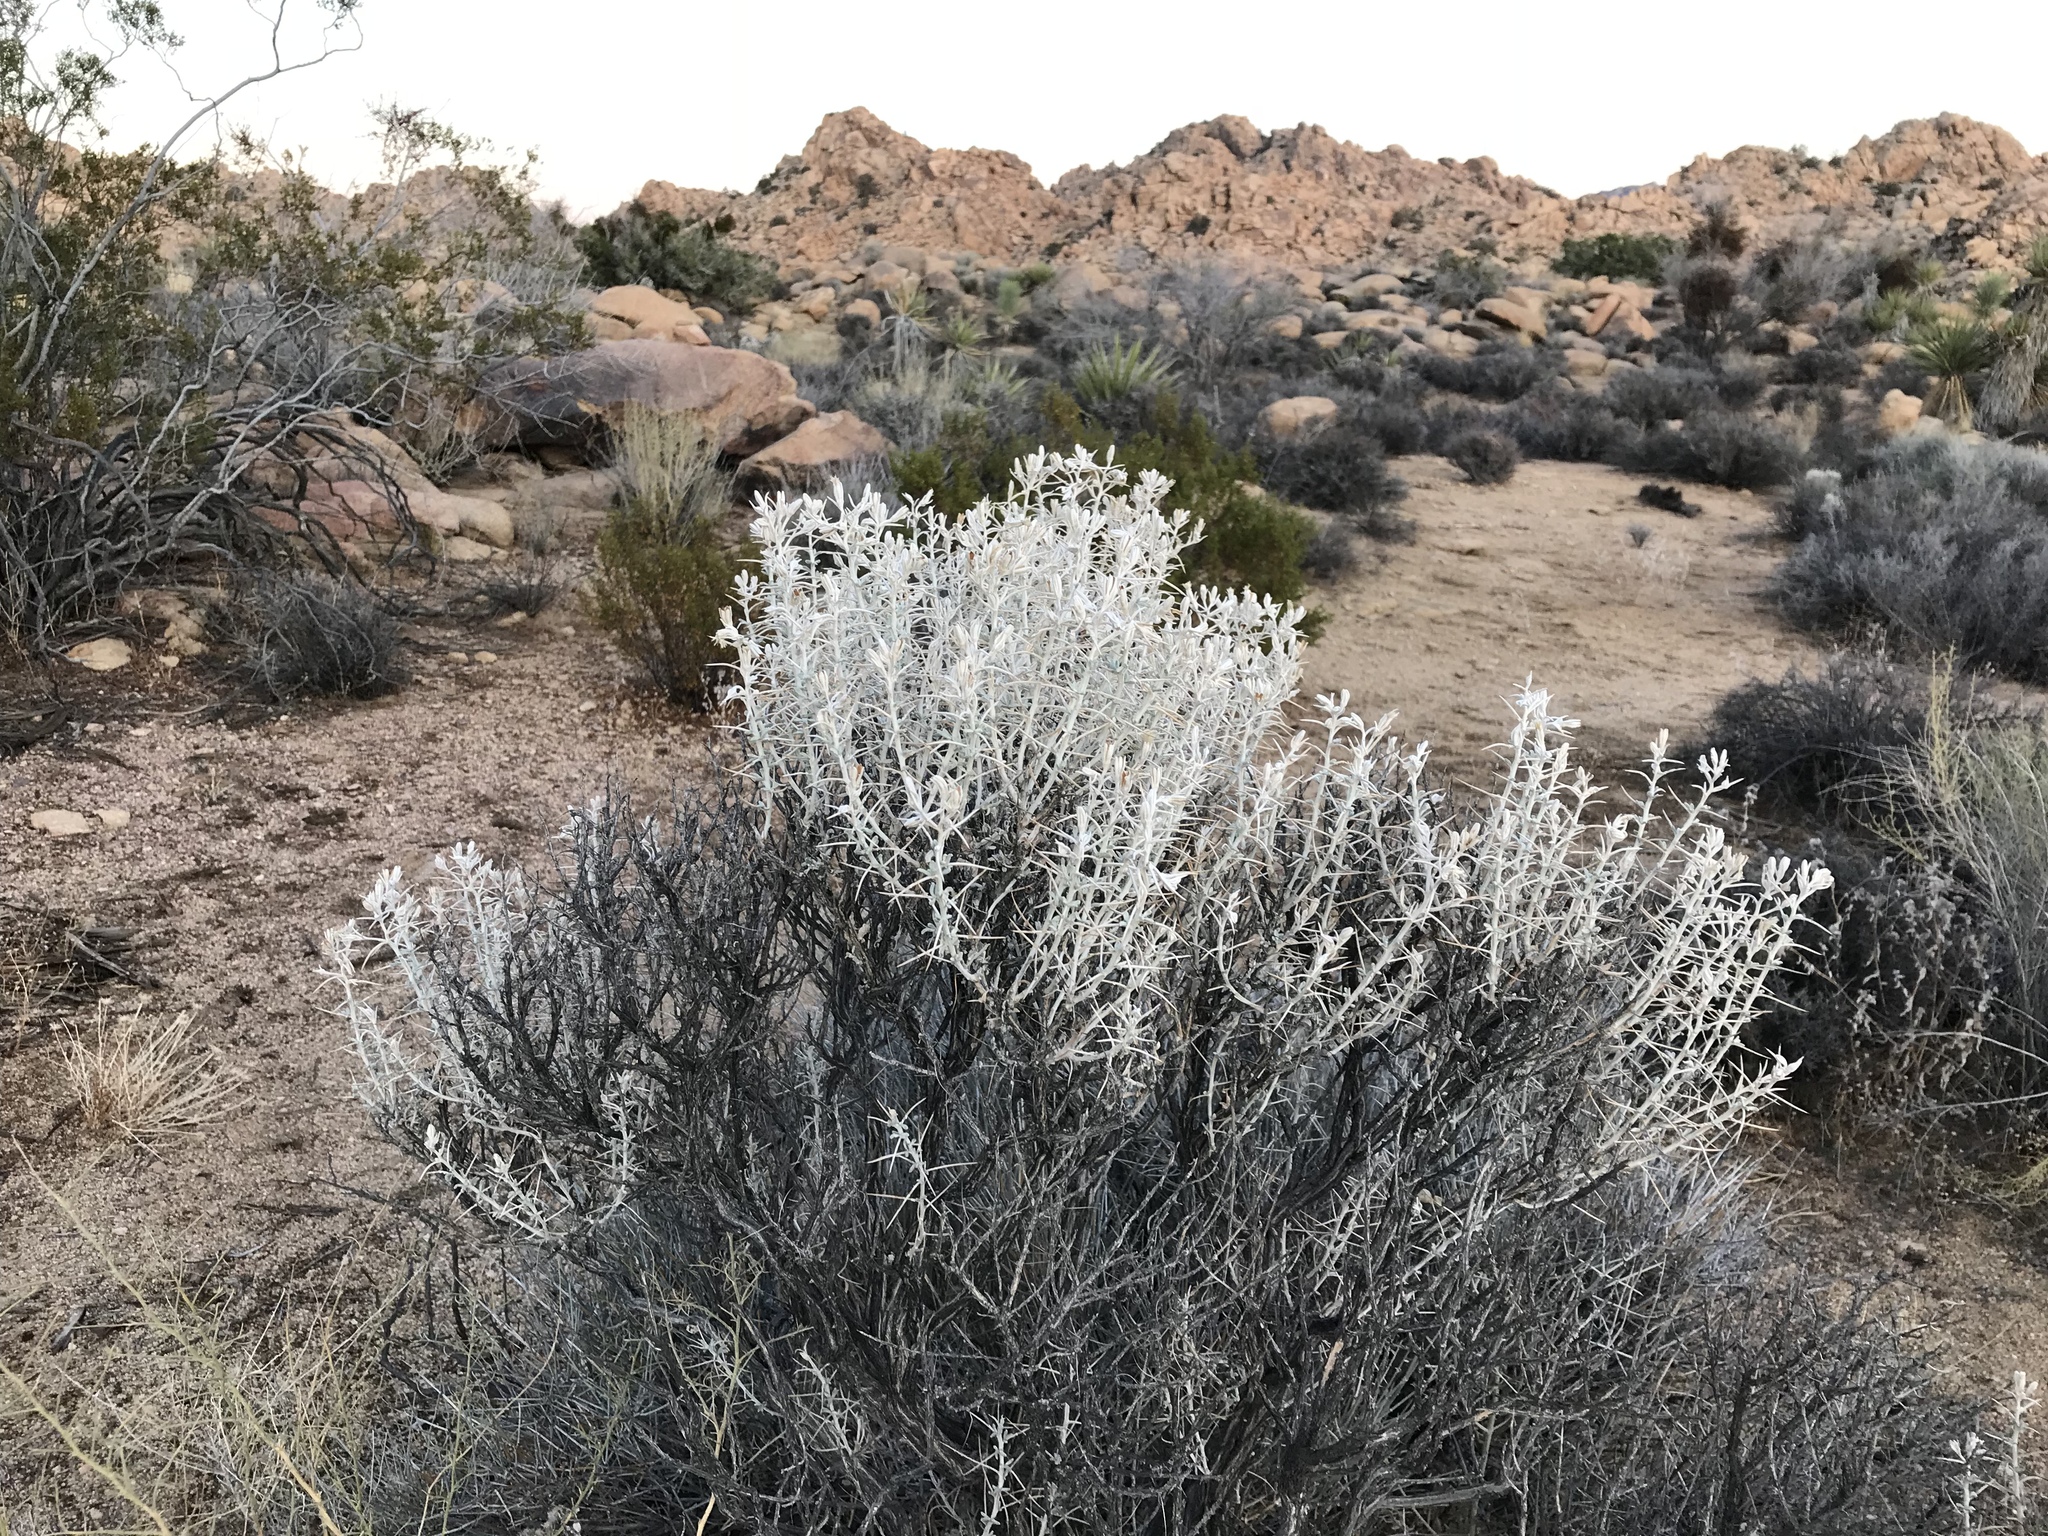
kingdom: Plantae
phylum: Tracheophyta
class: Magnoliopsida
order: Asterales
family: Asteraceae
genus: Tetradymia
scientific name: Tetradymia stenolepis
